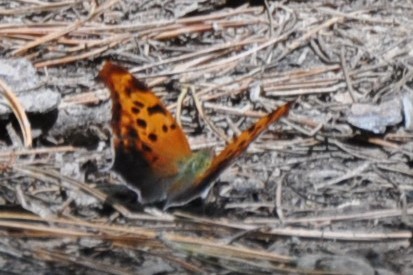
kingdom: Animalia
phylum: Arthropoda
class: Insecta
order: Lepidoptera
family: Nymphalidae
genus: Polygonia
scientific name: Polygonia interrogationis
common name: Question mark
